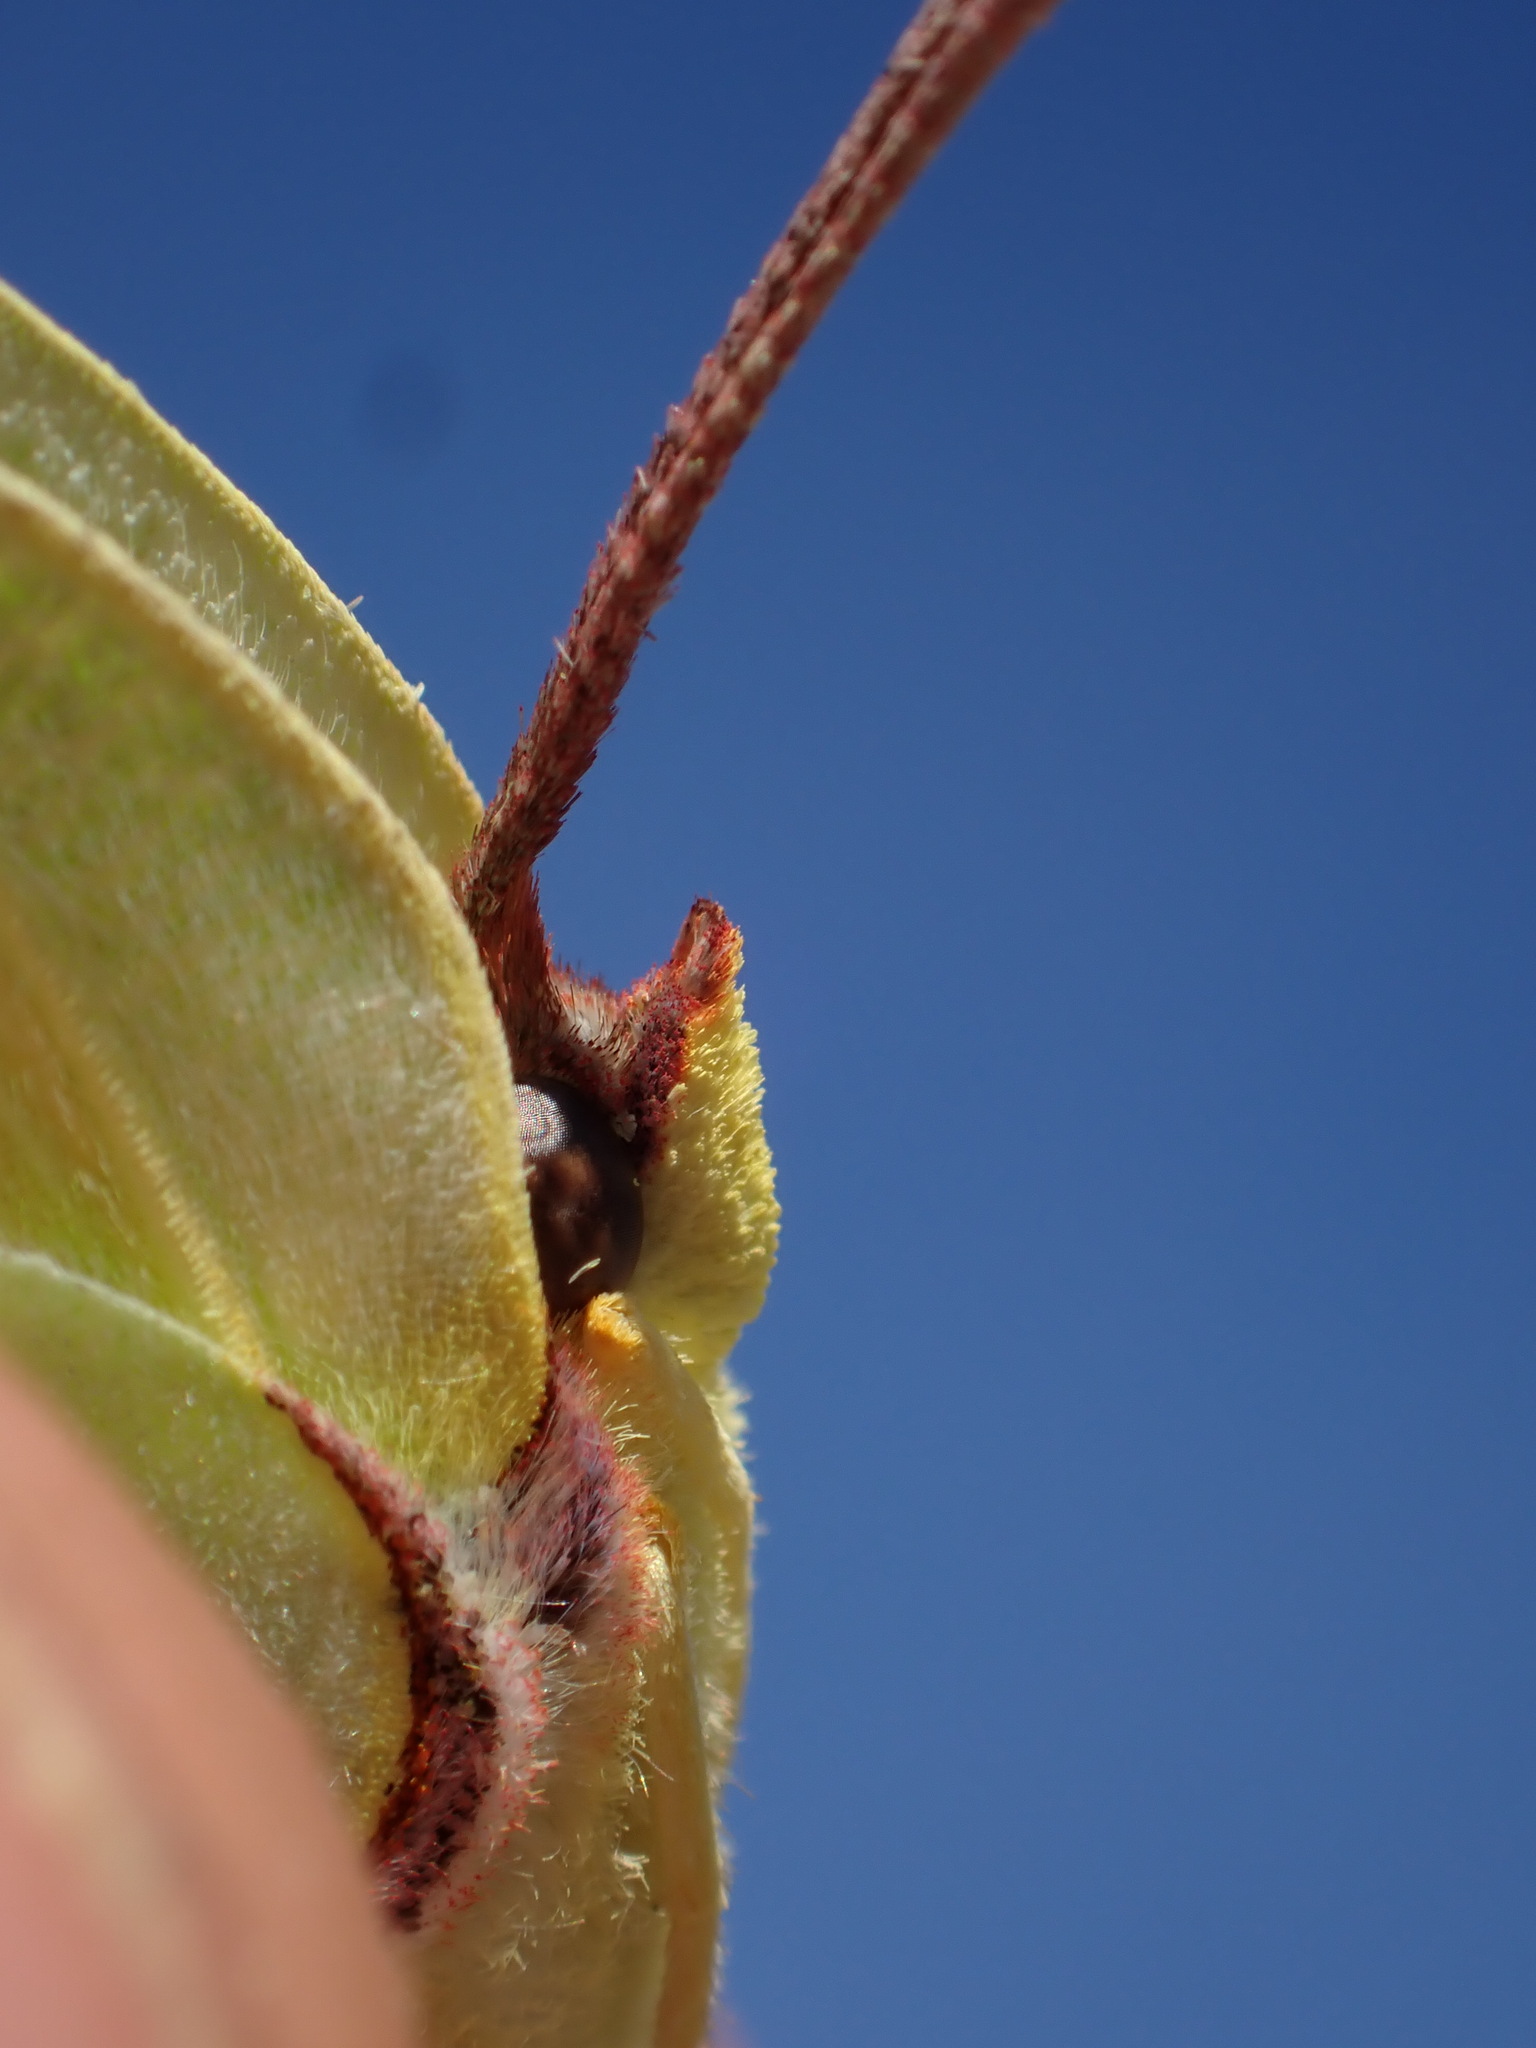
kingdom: Animalia
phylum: Arthropoda
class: Insecta
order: Lepidoptera
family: Pieridae
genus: Gonepteryx
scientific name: Gonepteryx cleopatra
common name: Cleopatra
